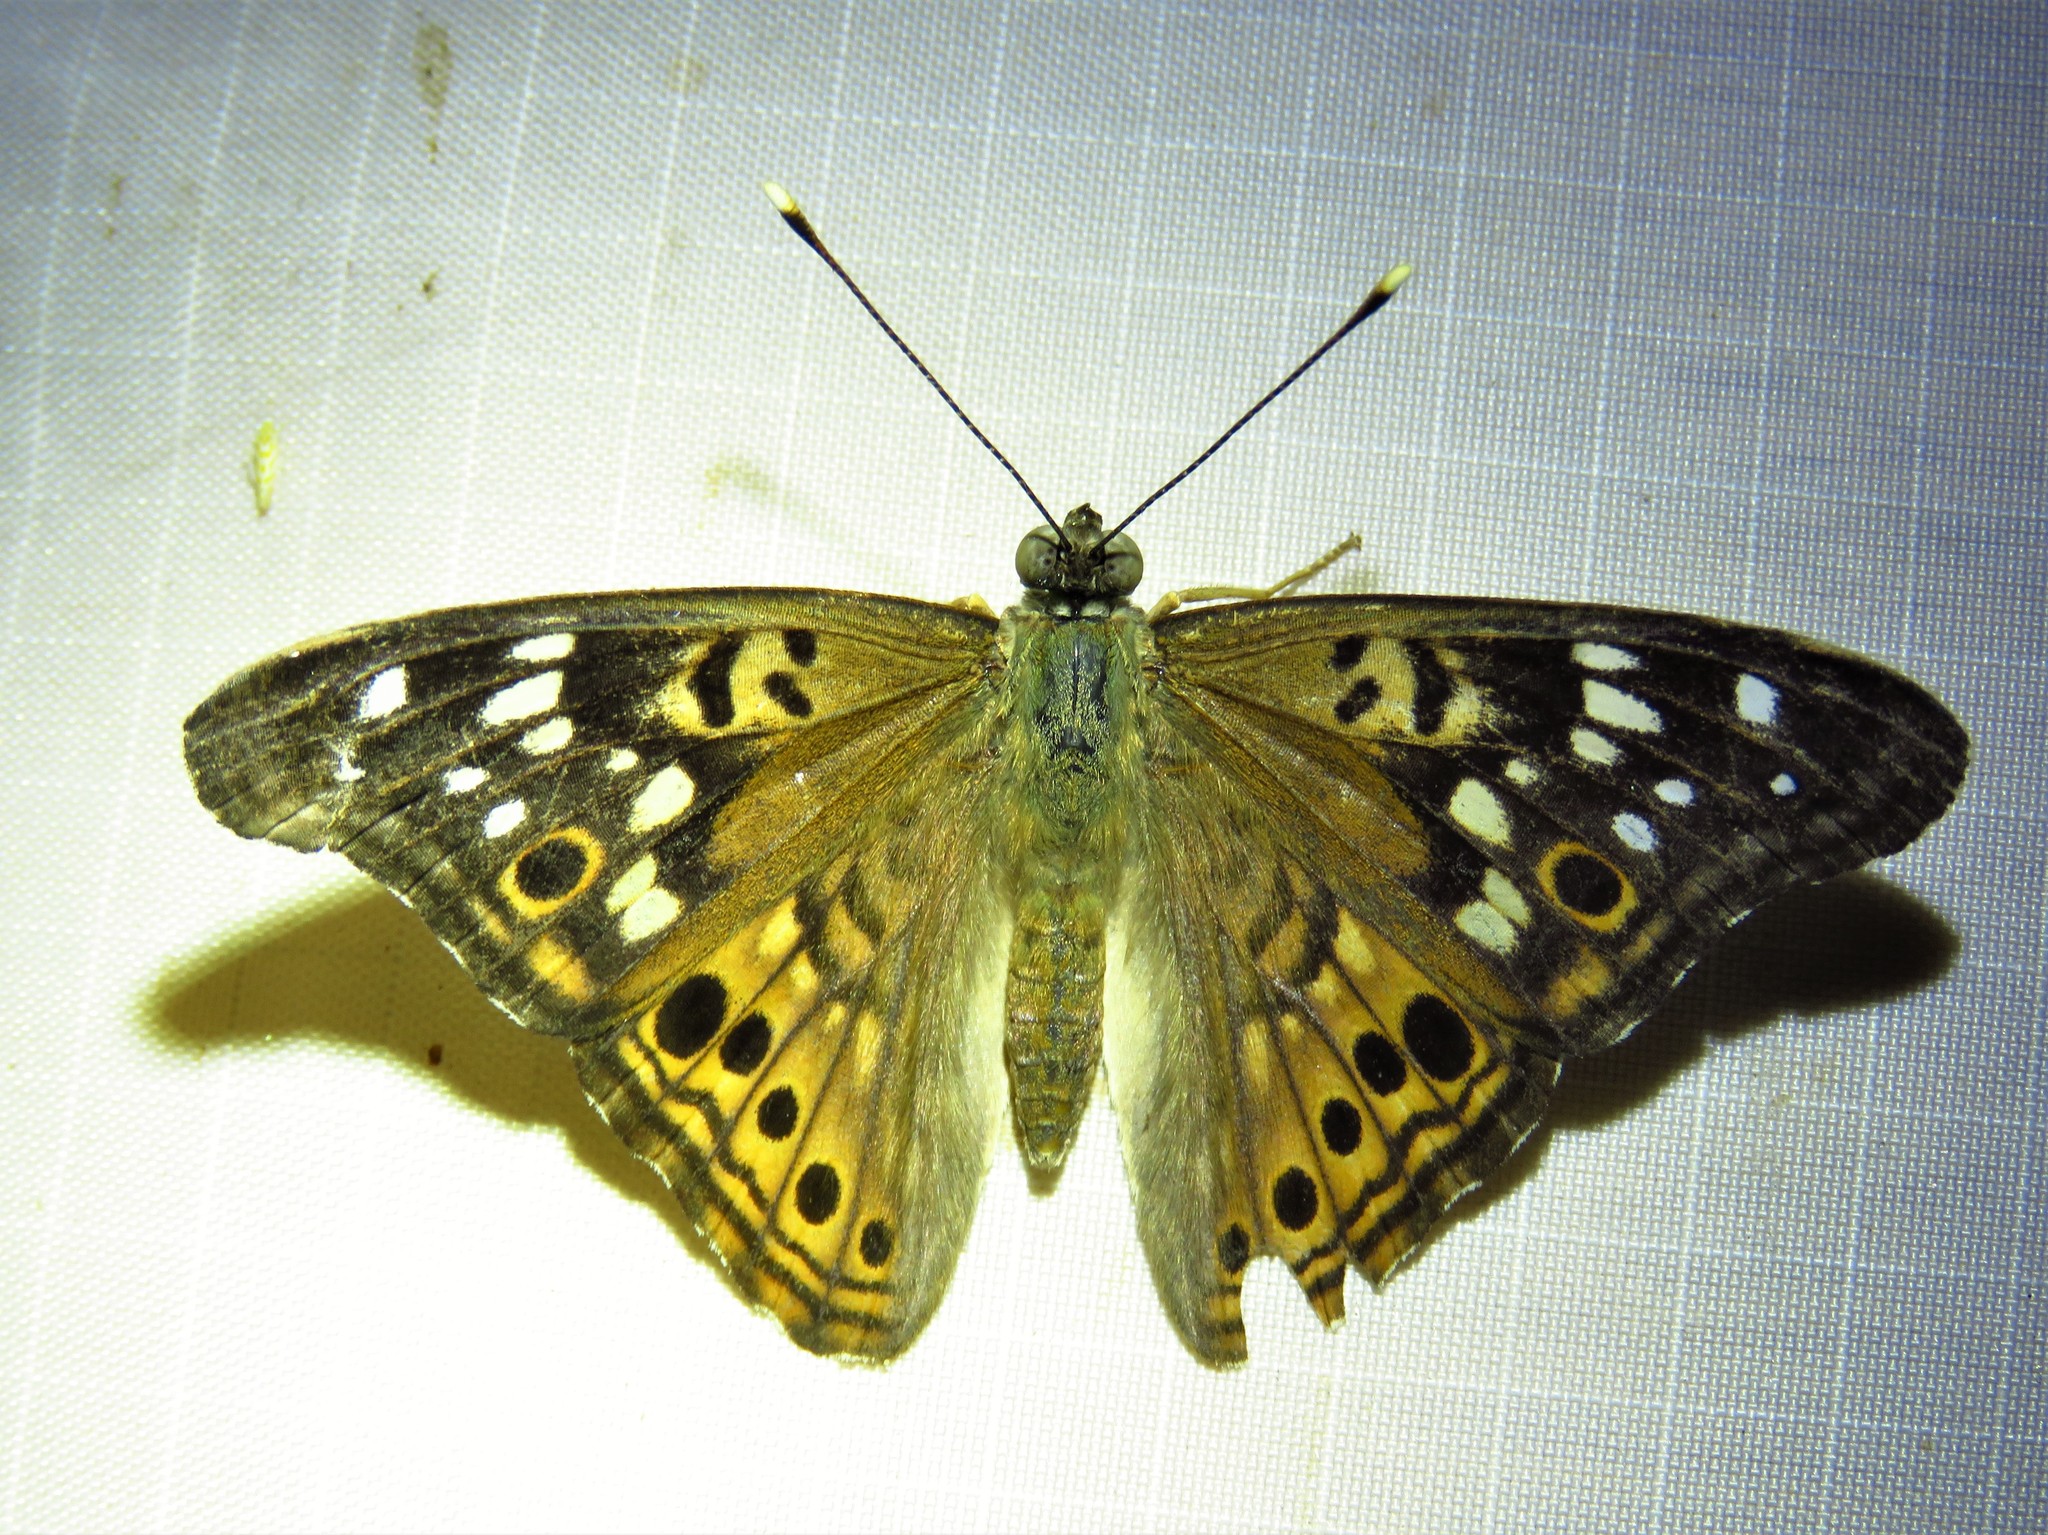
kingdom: Animalia
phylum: Arthropoda
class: Insecta
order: Lepidoptera
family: Nymphalidae
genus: Asterocampa
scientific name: Asterocampa celtis
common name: Hackberry emperor
